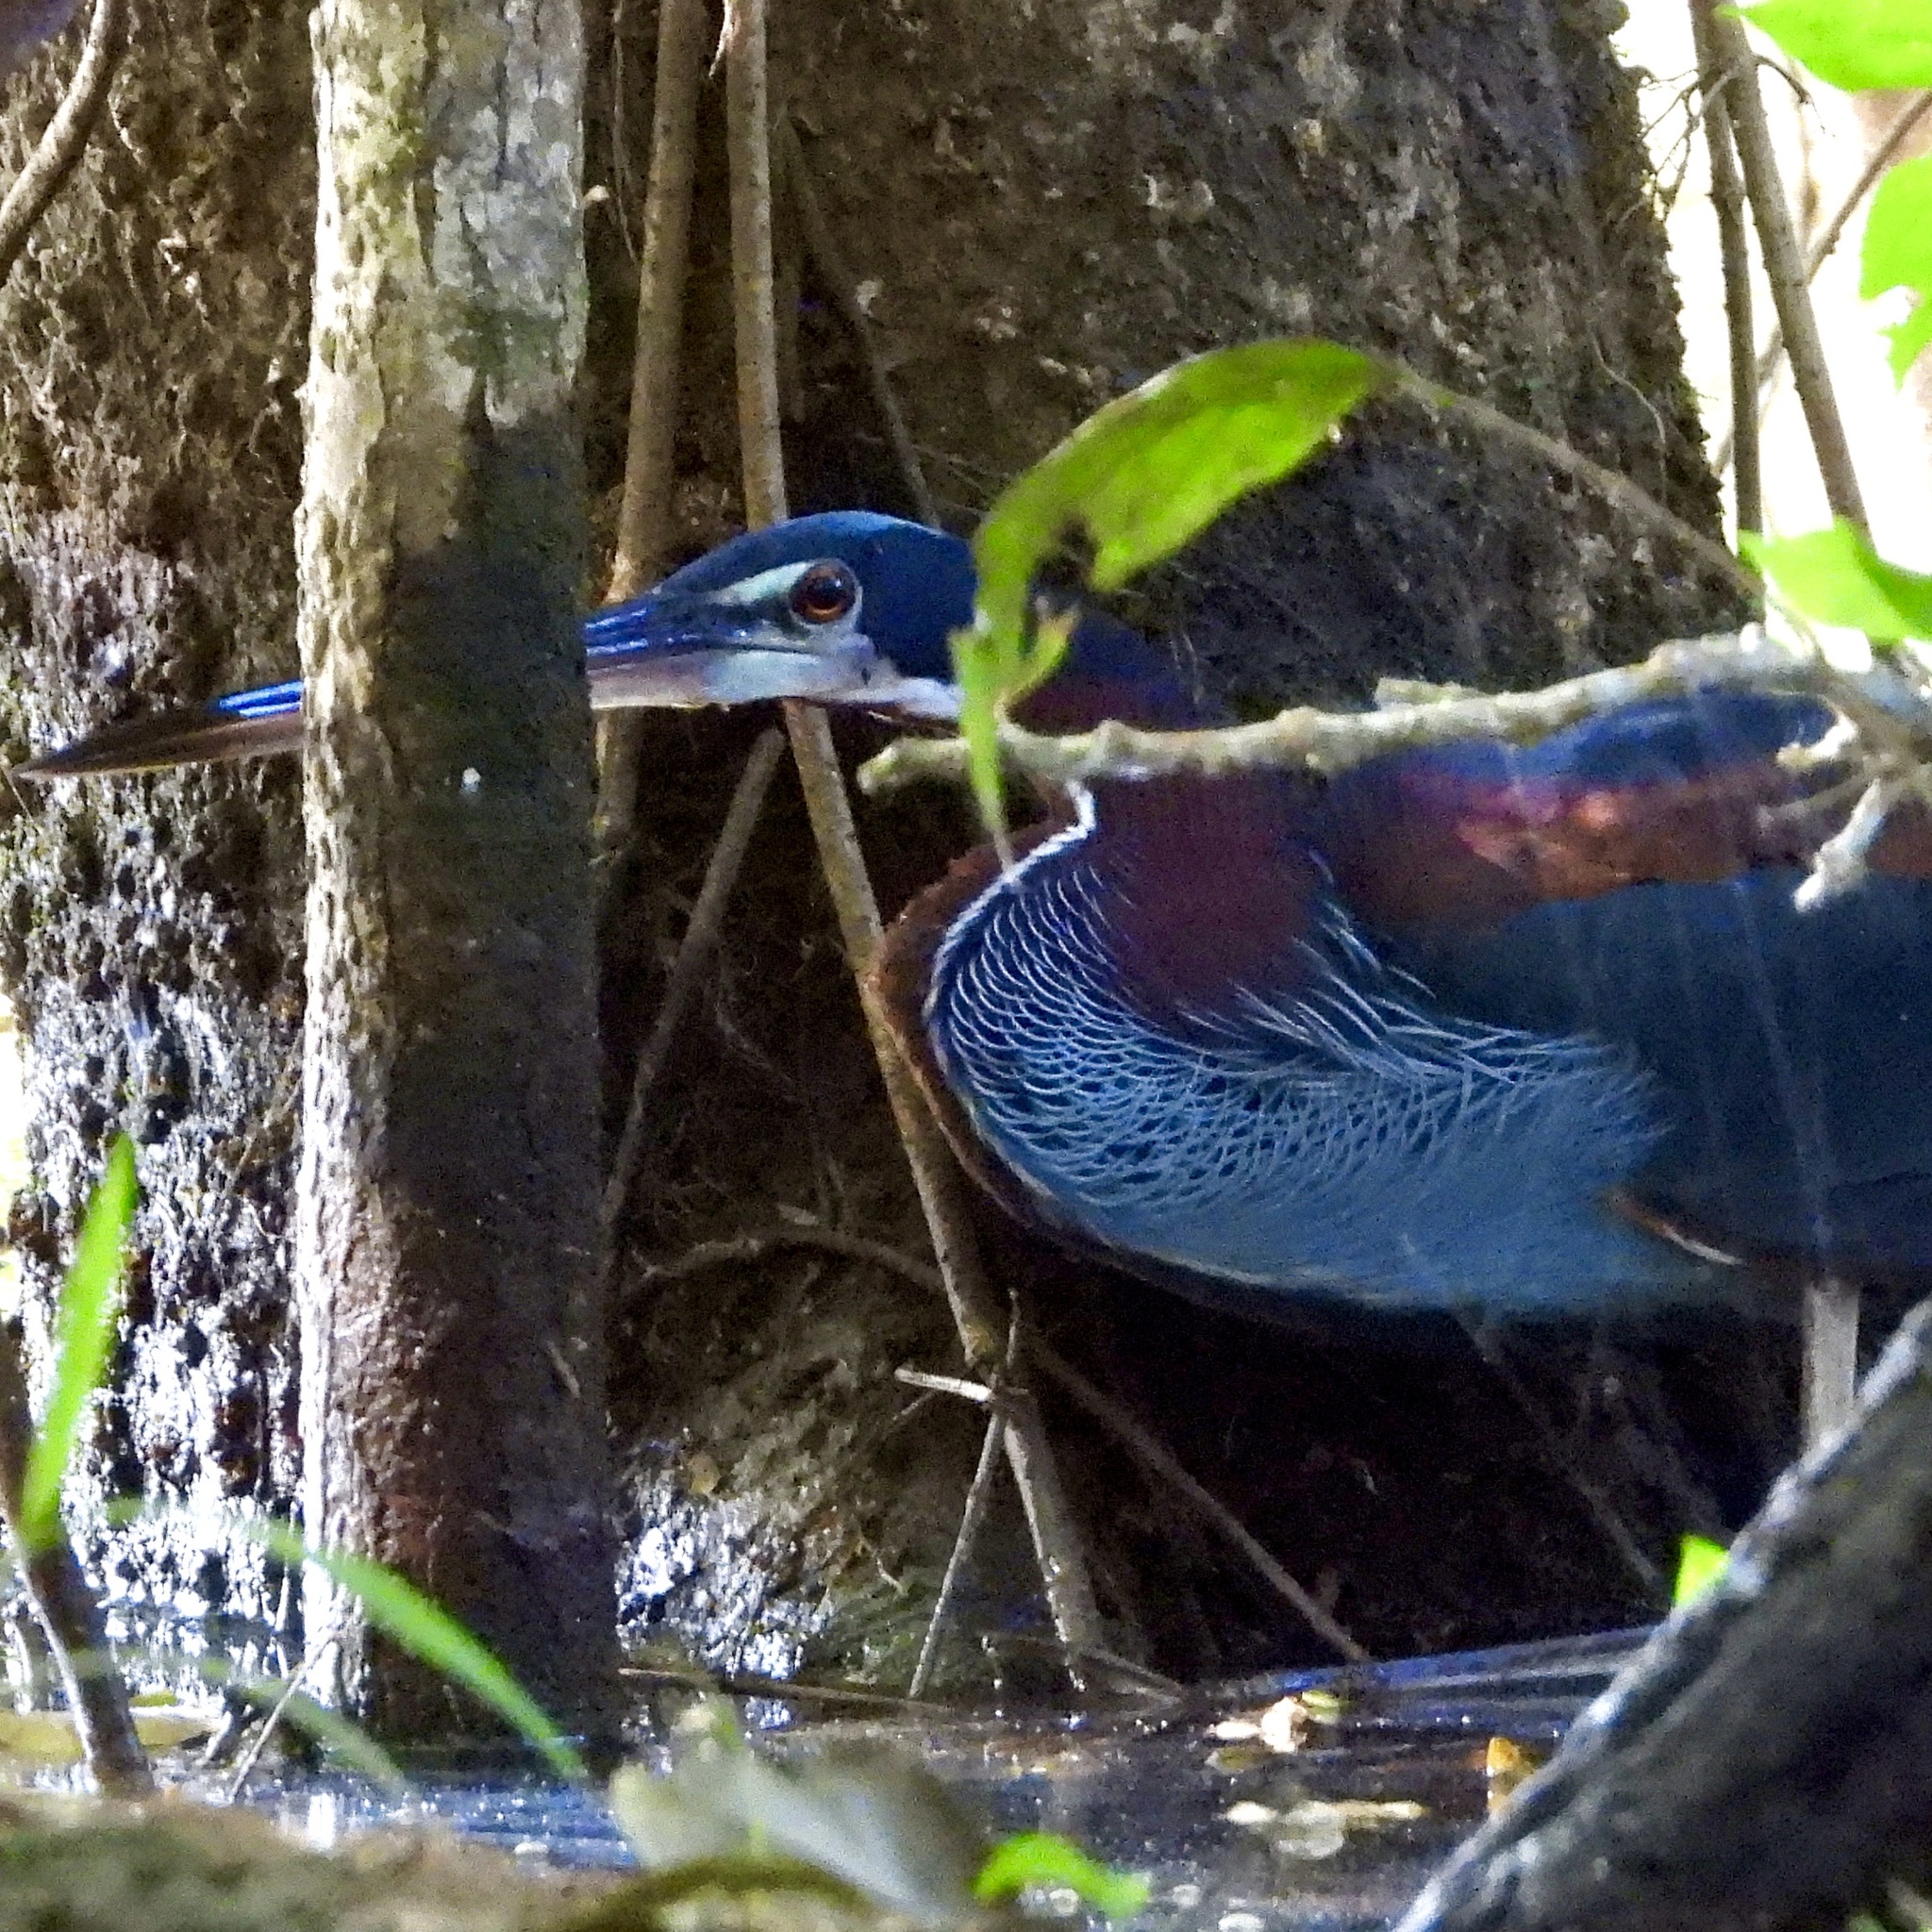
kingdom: Animalia
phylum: Chordata
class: Aves
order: Pelecaniformes
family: Ardeidae
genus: Agamia
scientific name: Agamia agami
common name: Agami heron
